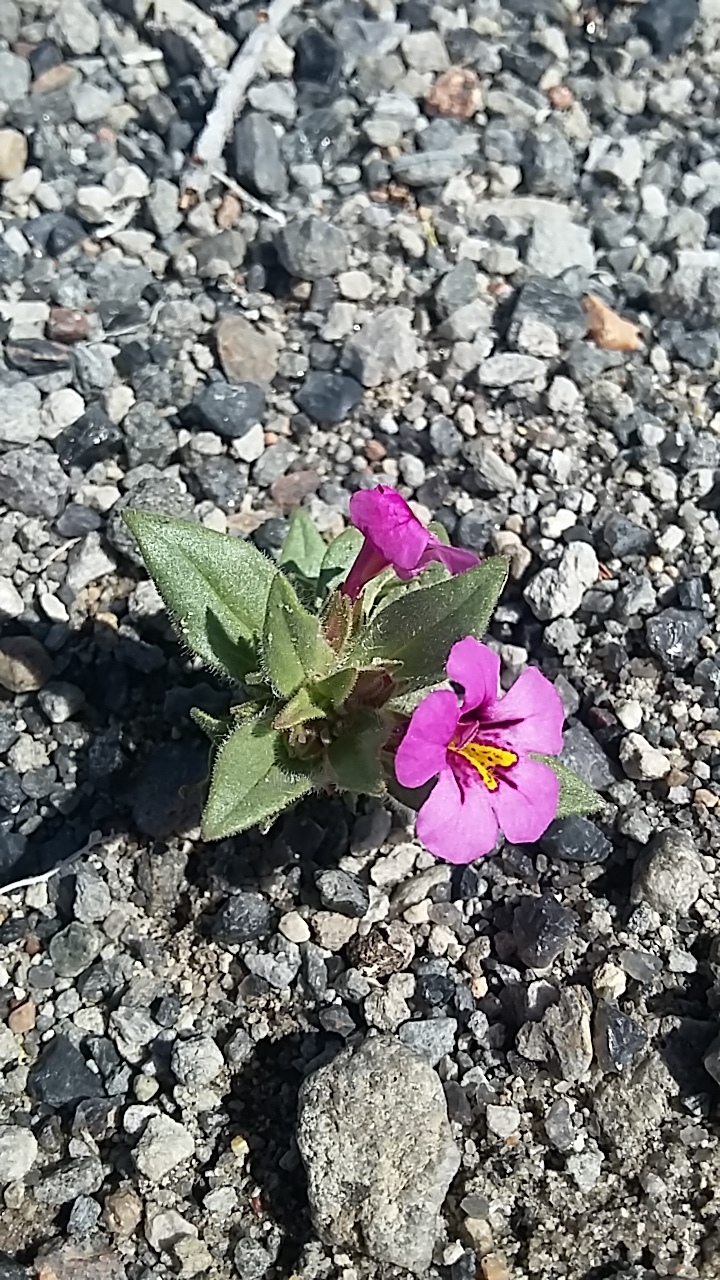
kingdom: Plantae
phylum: Tracheophyta
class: Magnoliopsida
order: Lamiales
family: Phrymaceae
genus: Diplacus
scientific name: Diplacus nanus
